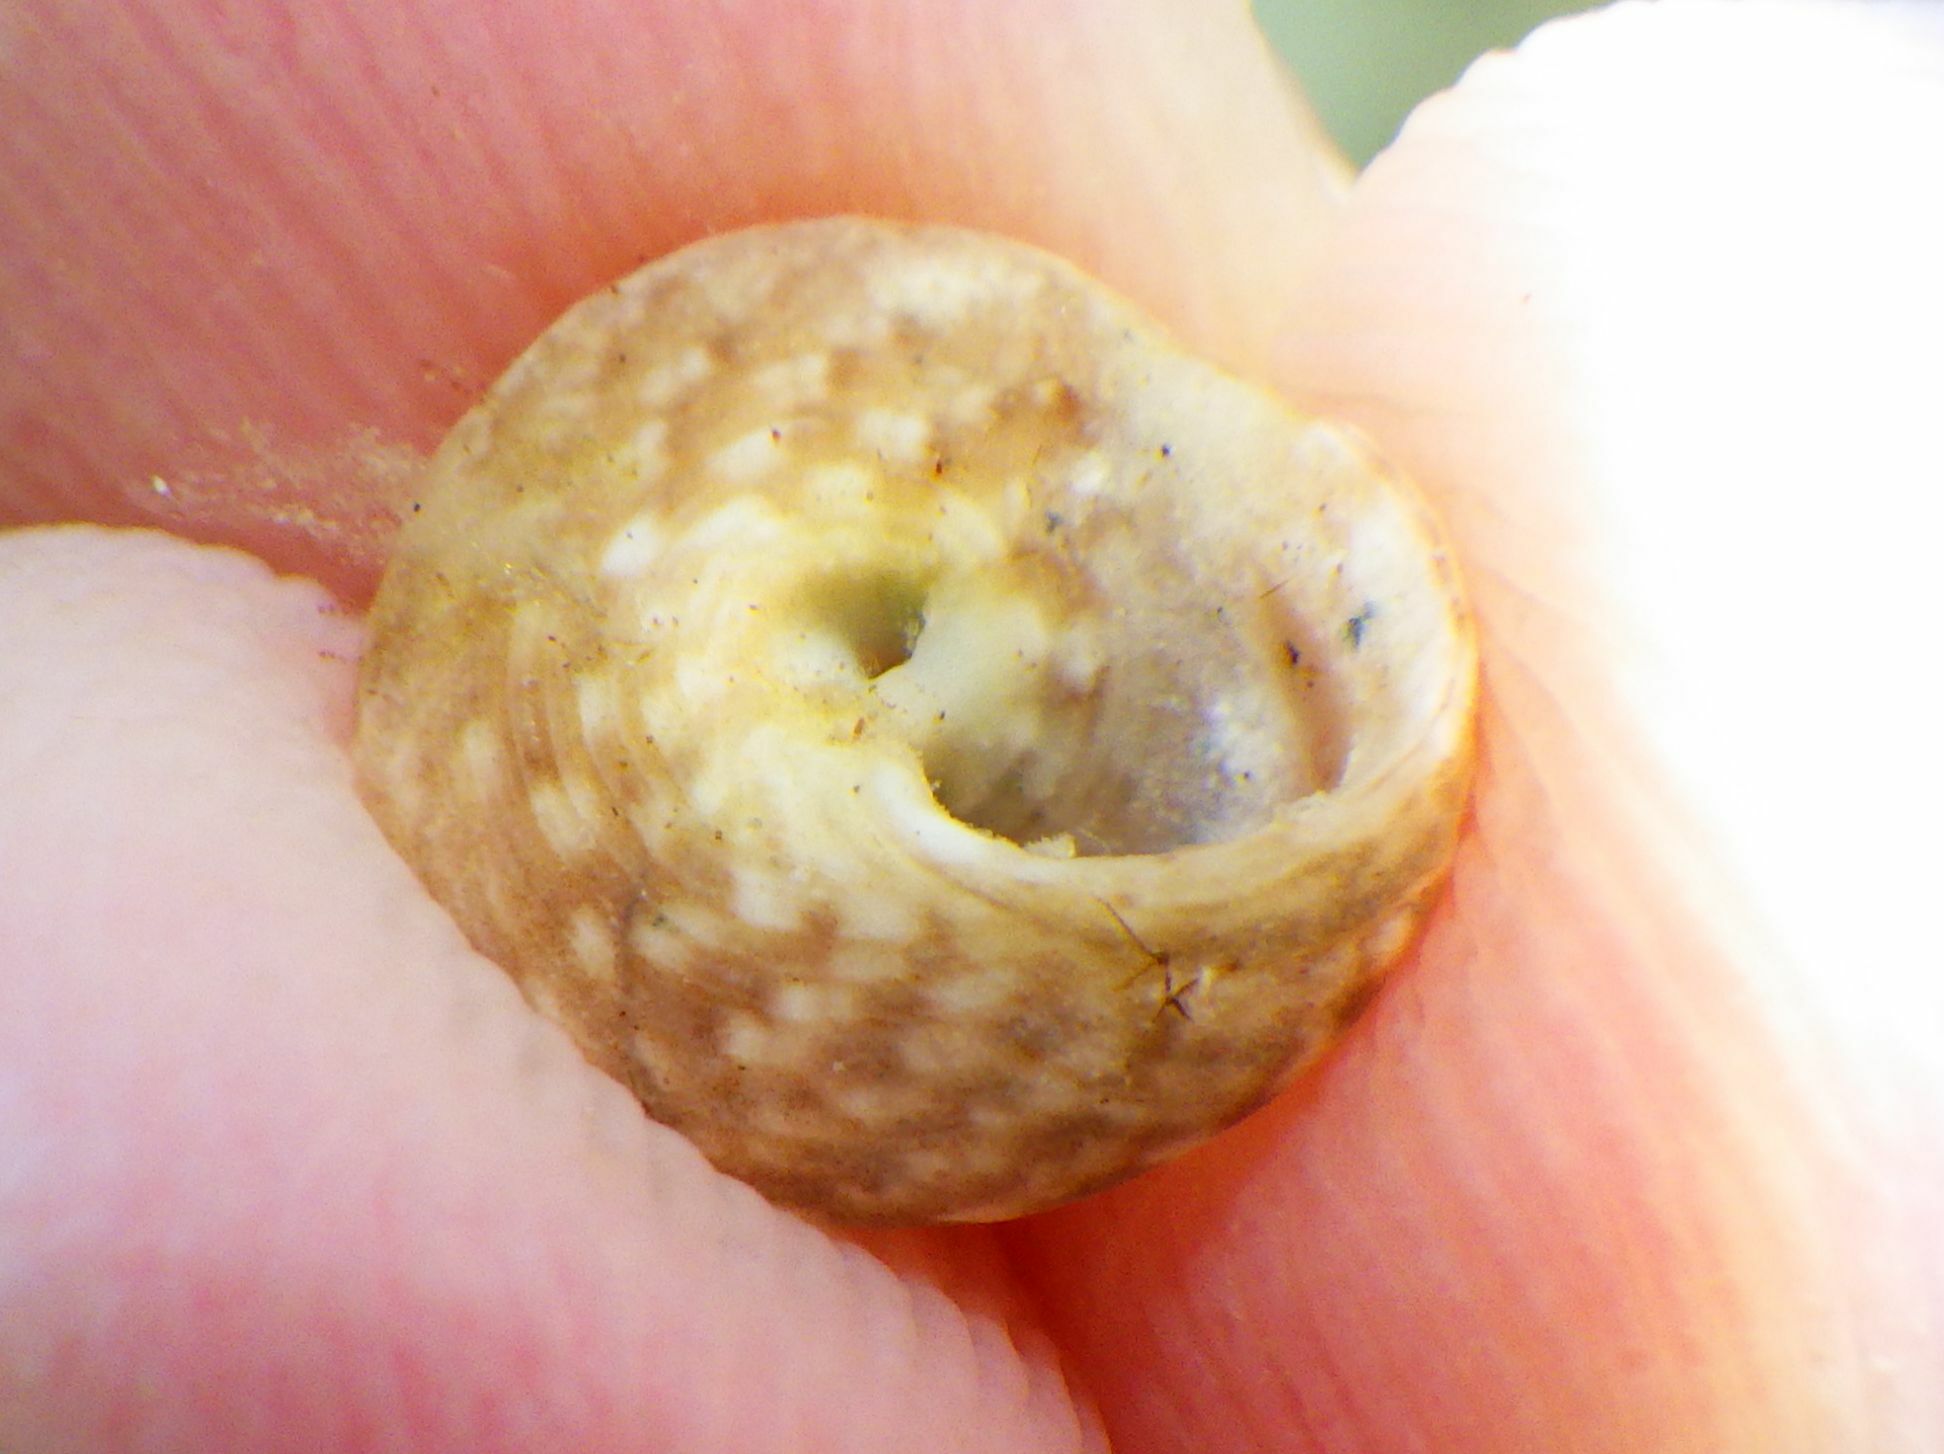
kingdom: Animalia
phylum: Mollusca
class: Gastropoda
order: Trochida
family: Trochidae
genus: Phorcus
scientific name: Phorcus articulatus
